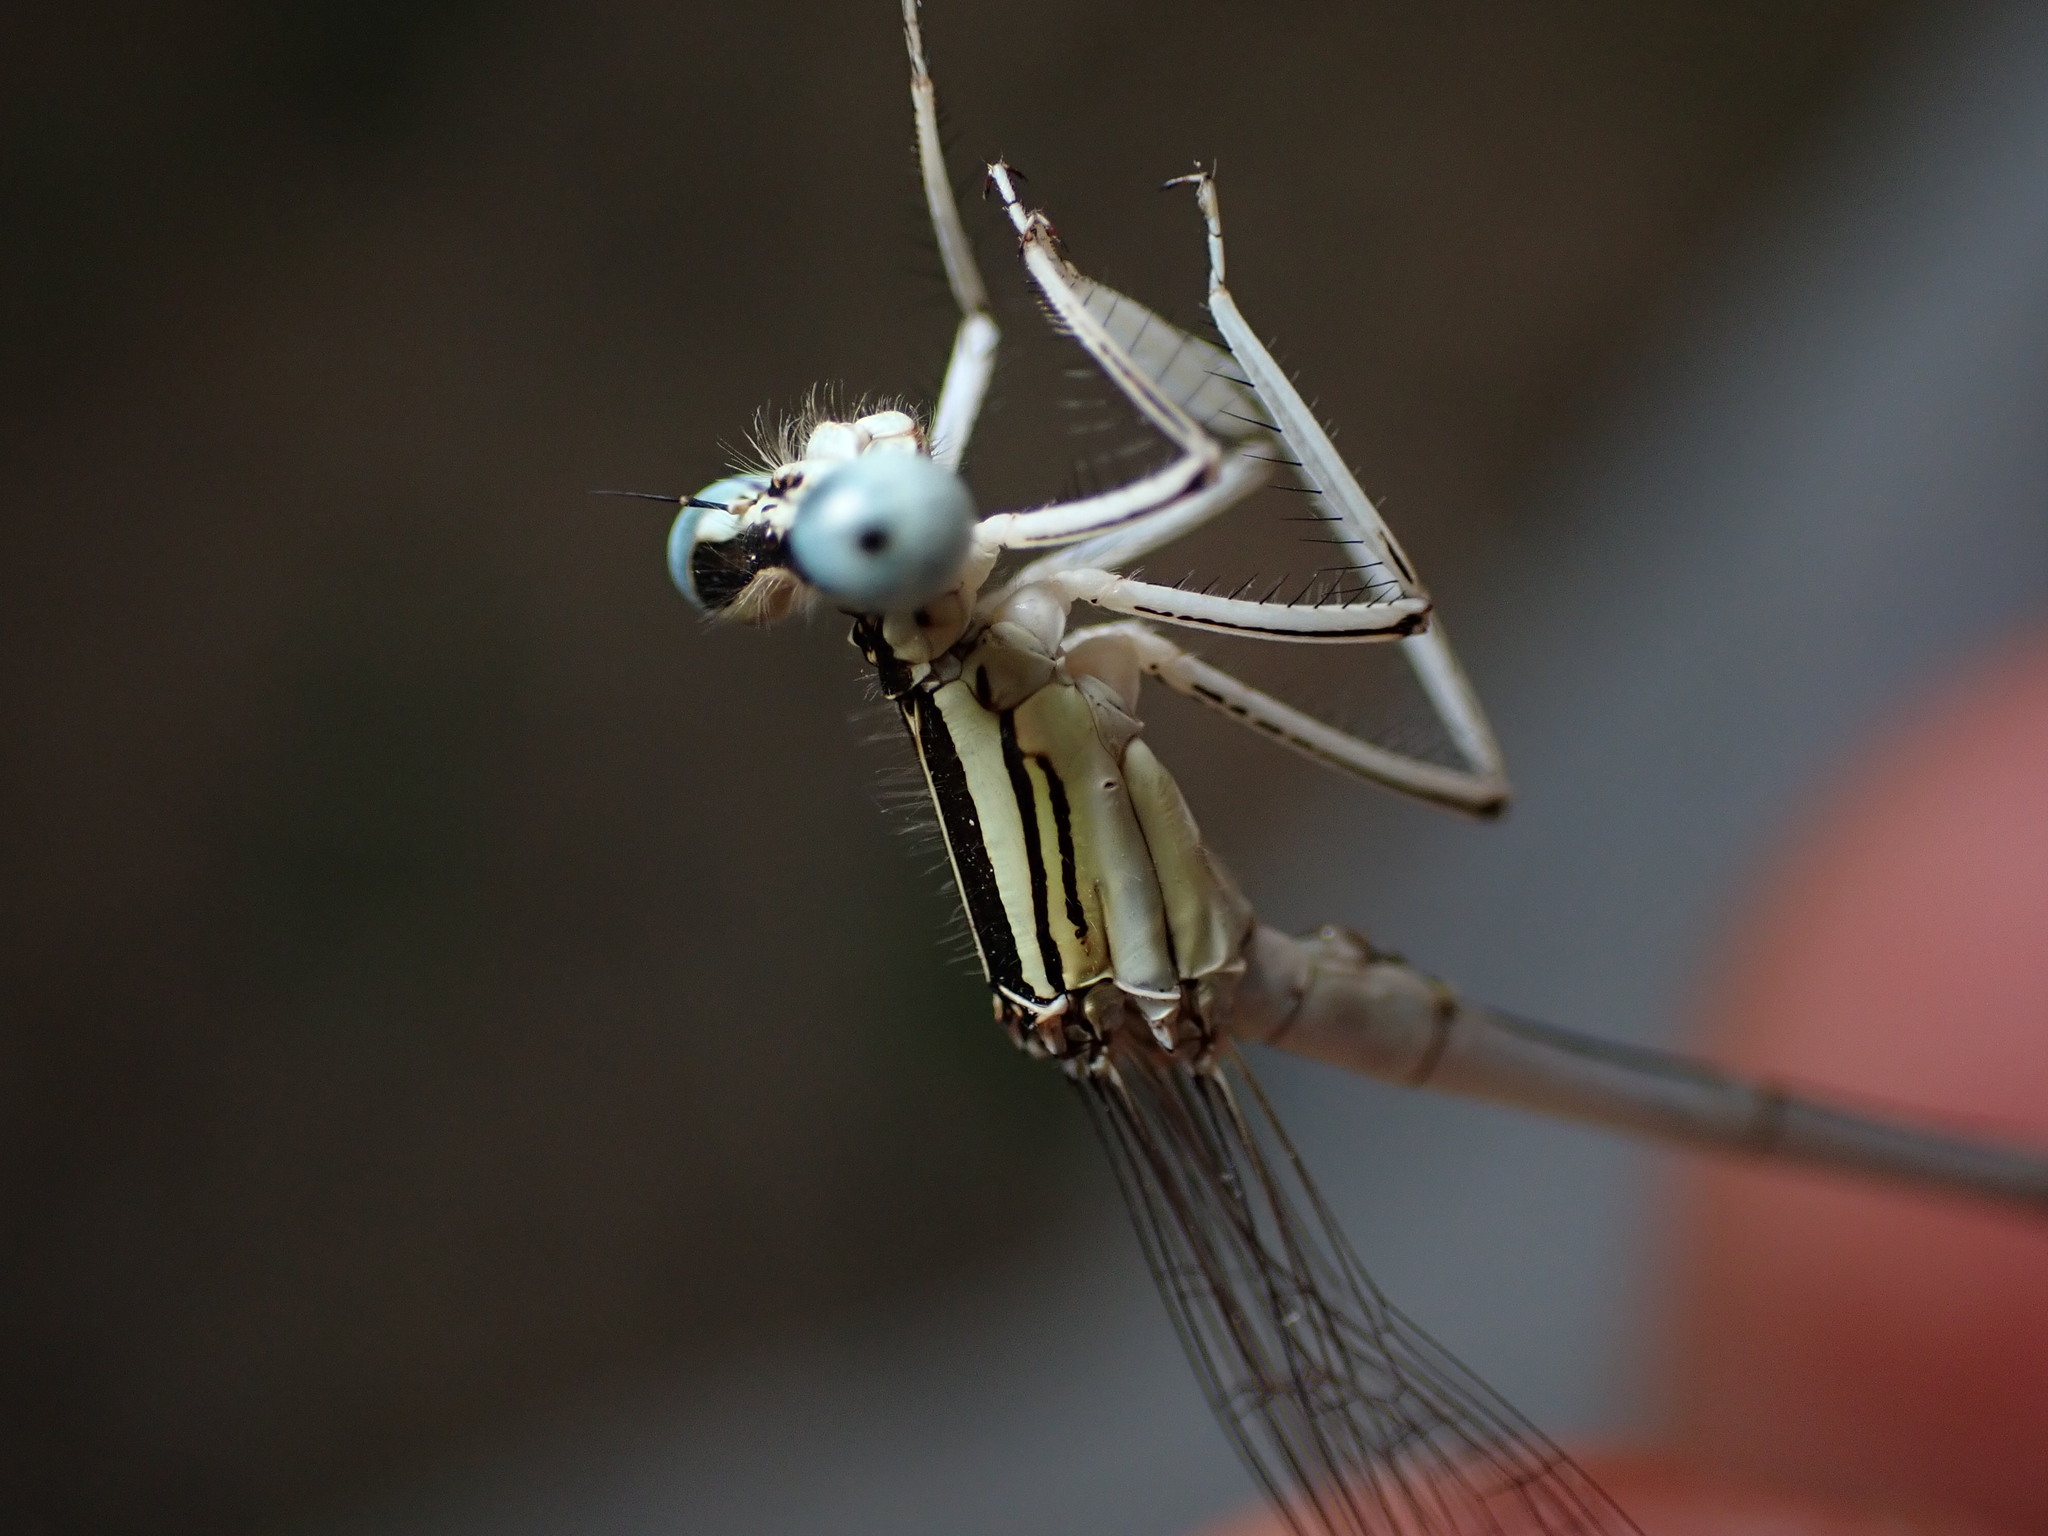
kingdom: Animalia
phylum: Arthropoda
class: Insecta
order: Odonata
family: Platycnemididae
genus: Platycnemis
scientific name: Platycnemis latipes
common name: White featherleg
